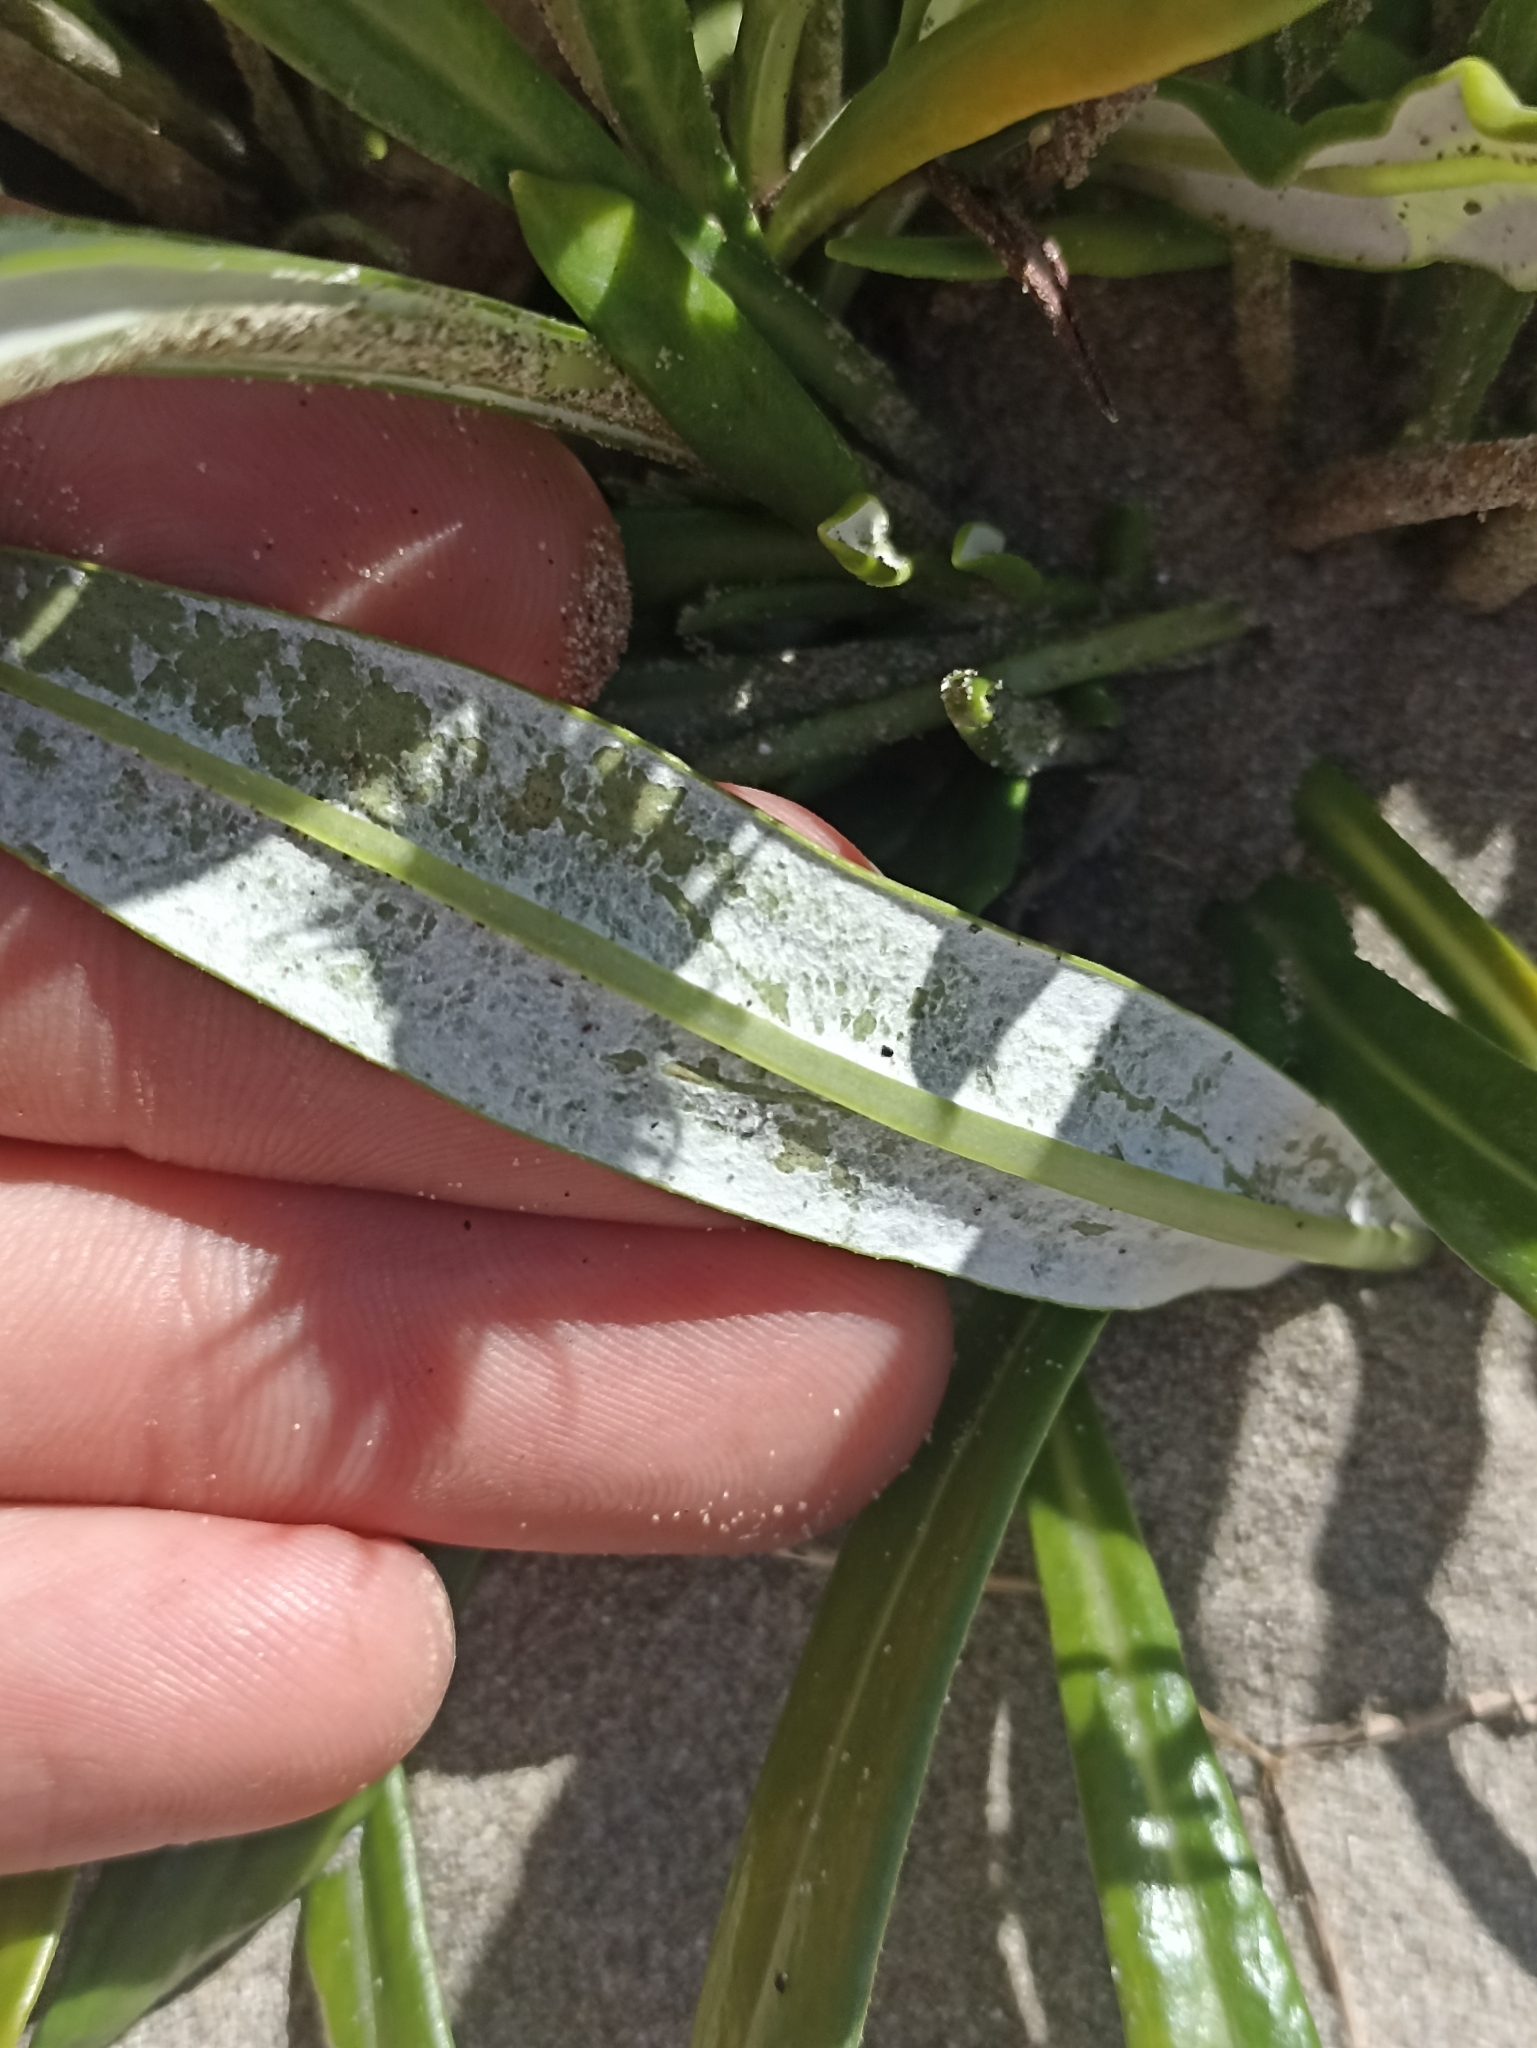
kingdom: Plantae
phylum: Tracheophyta
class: Magnoliopsida
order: Asterales
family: Asteraceae
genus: Gazania
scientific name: Gazania splendens
